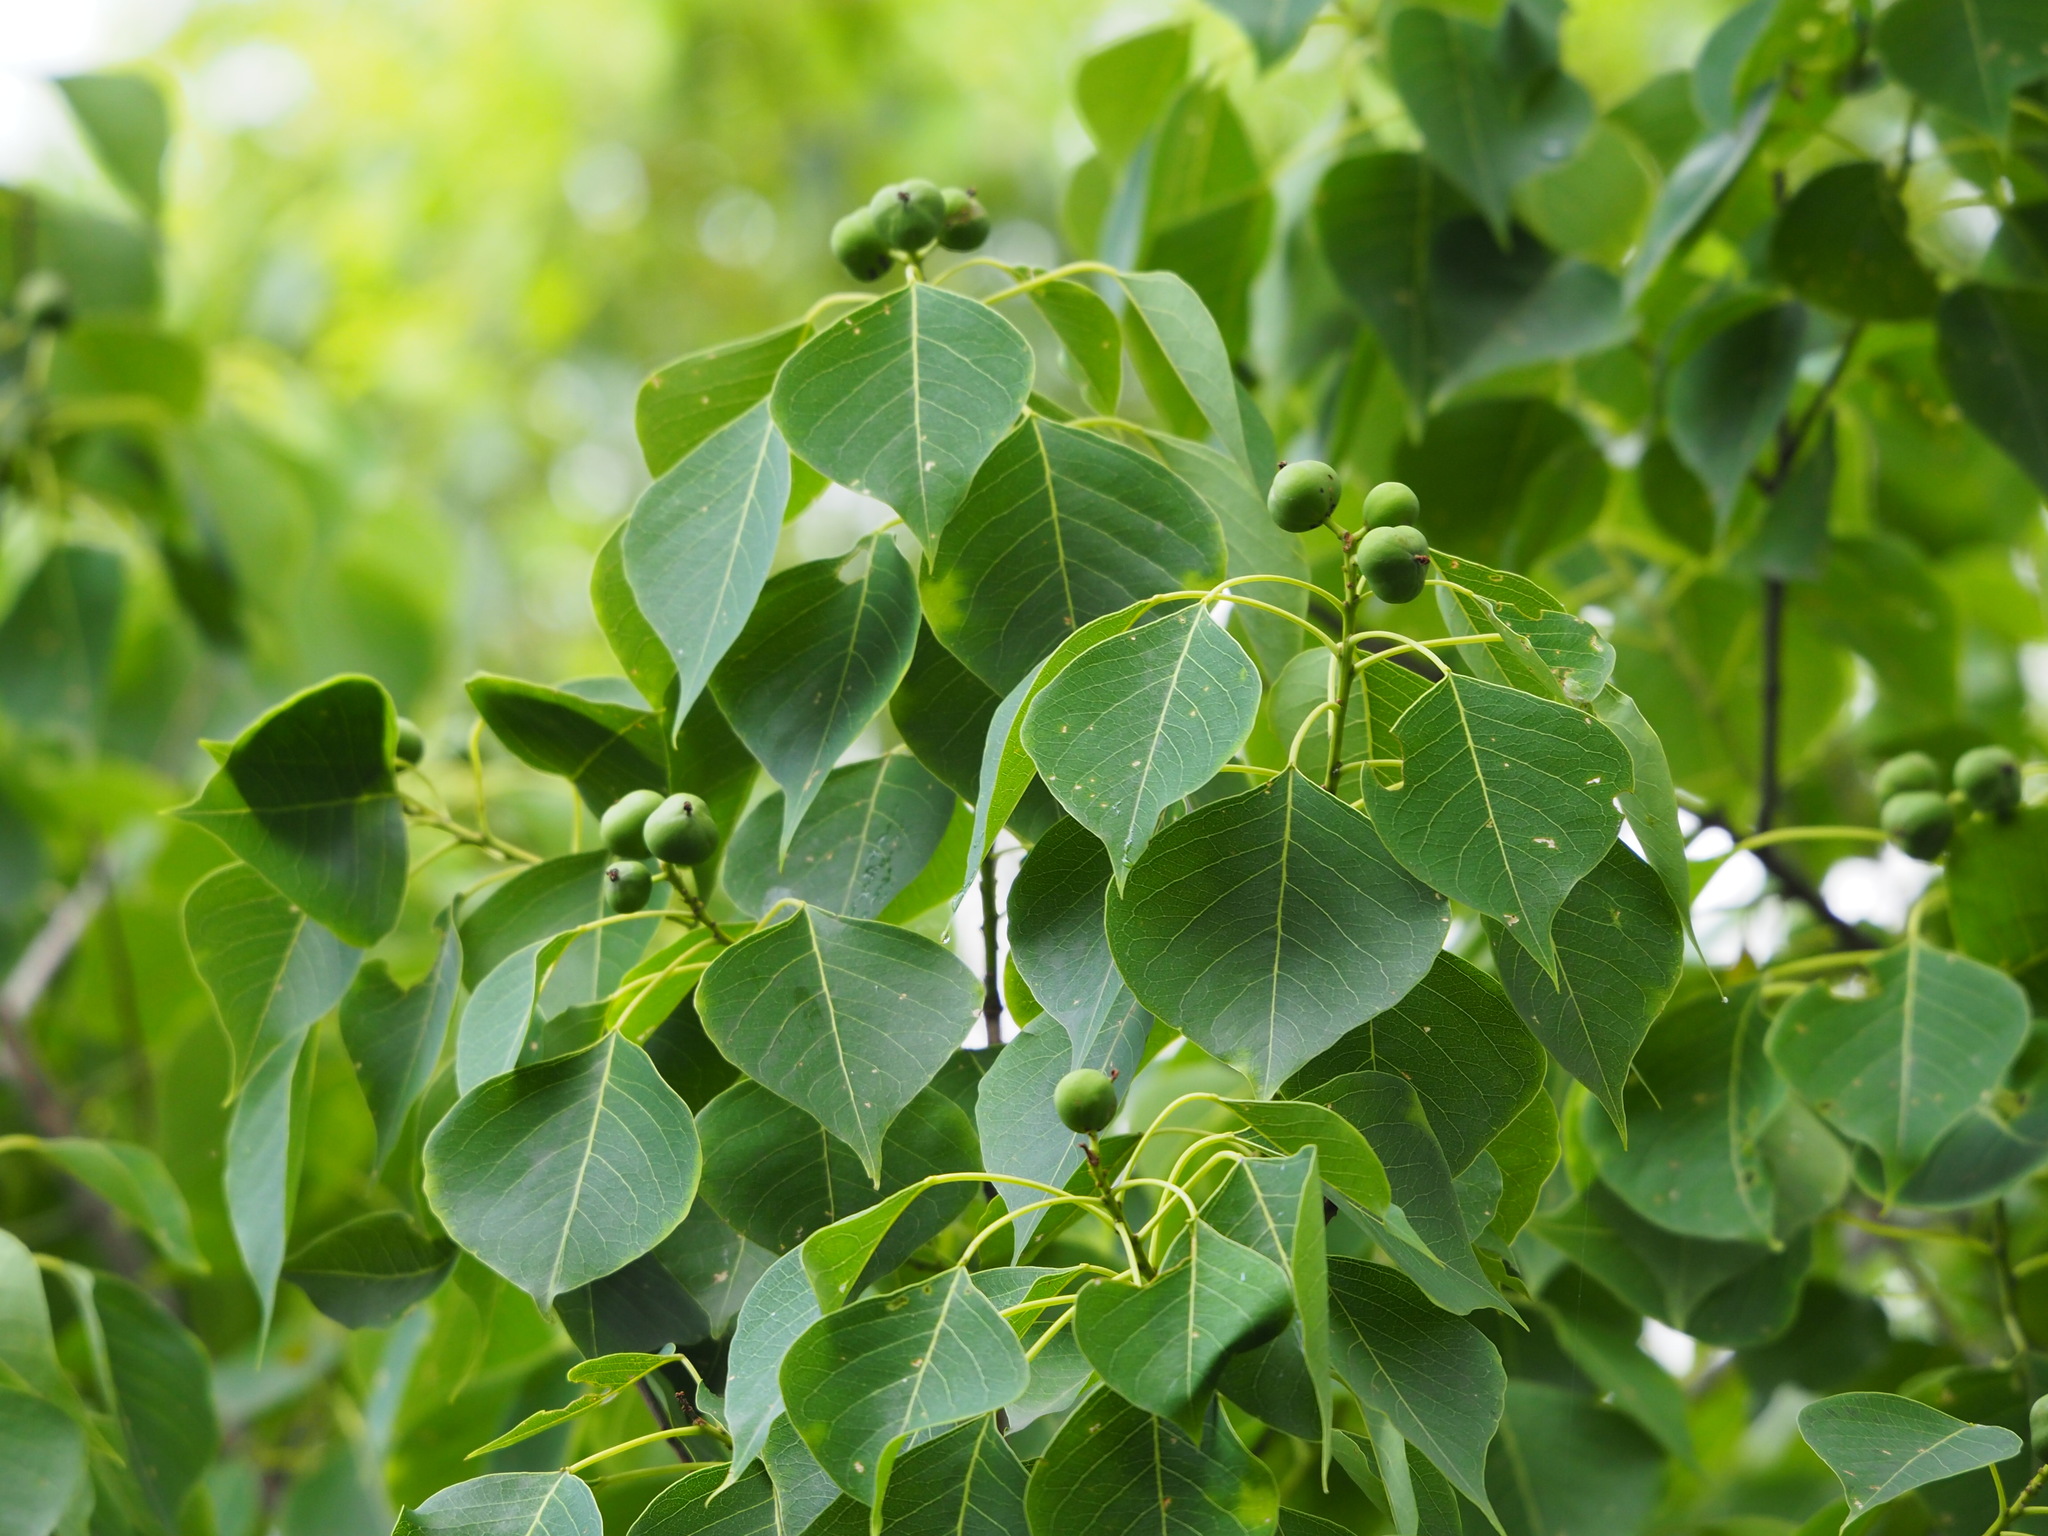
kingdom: Plantae
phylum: Tracheophyta
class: Magnoliopsida
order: Malpighiales
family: Euphorbiaceae
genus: Triadica
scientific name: Triadica sebifera
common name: Chinese tallow
